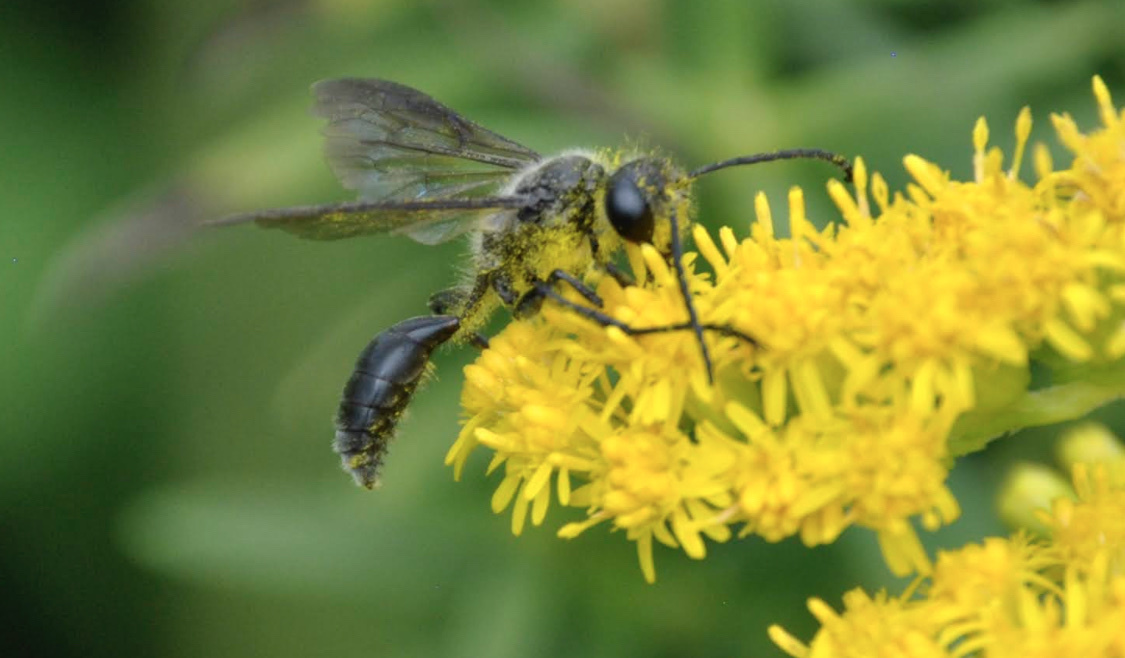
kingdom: Animalia
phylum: Arthropoda
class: Insecta
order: Hymenoptera
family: Sphecidae
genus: Isodontia
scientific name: Isodontia mexicana
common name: Mud dauber
